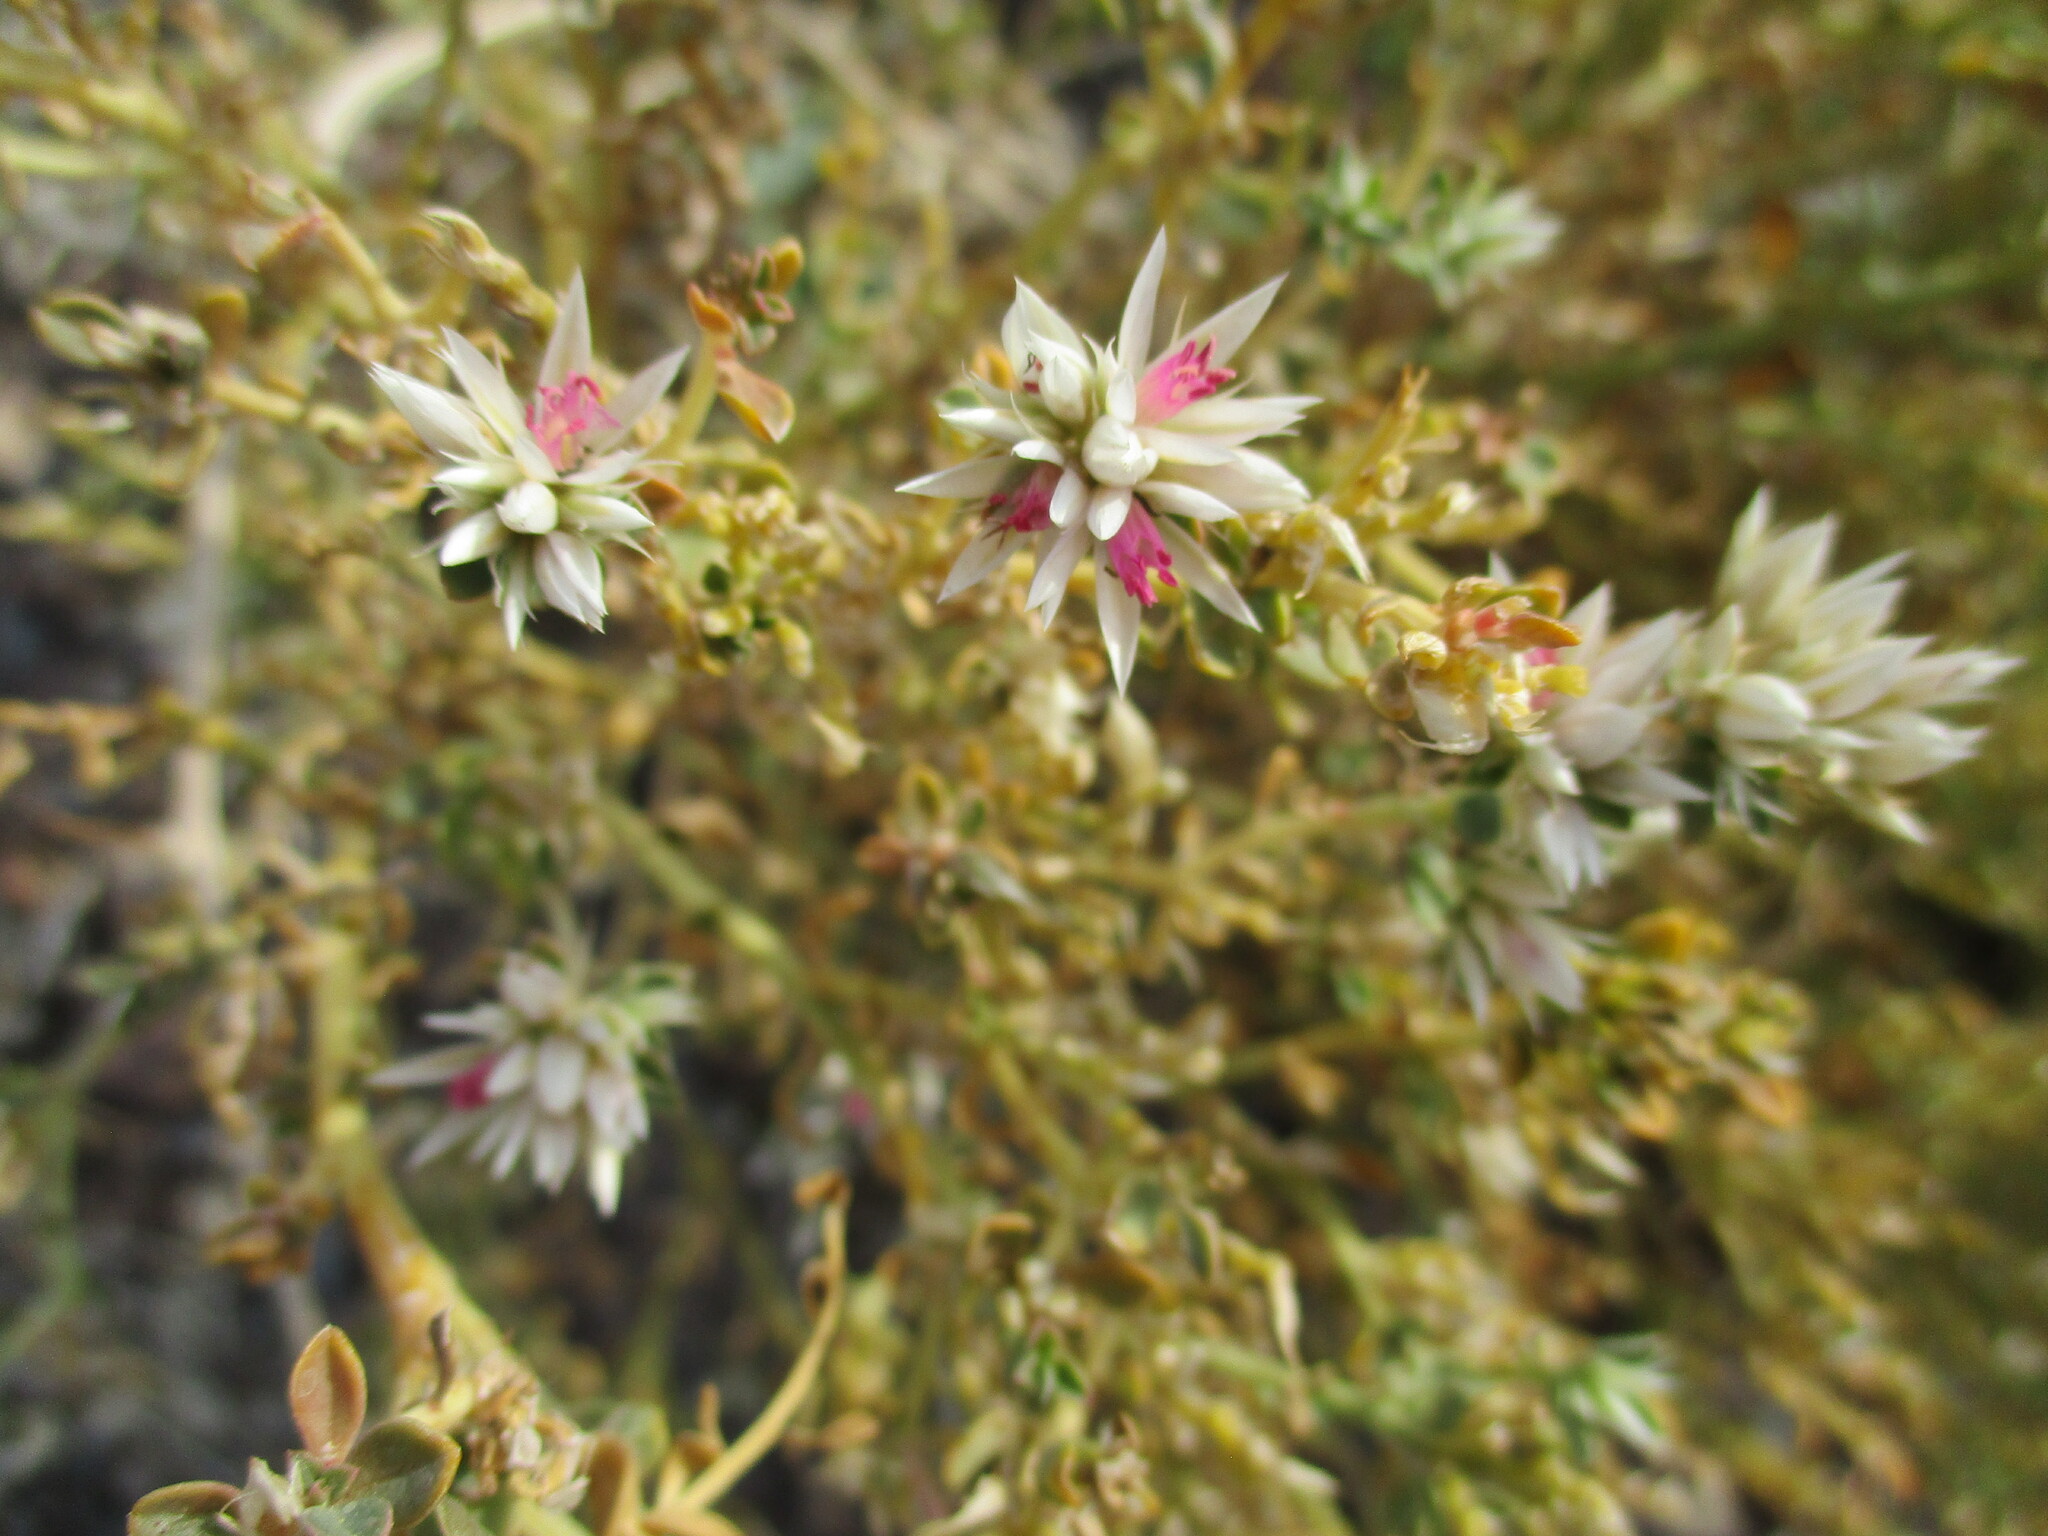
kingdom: Plantae
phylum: Tracheophyta
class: Magnoliopsida
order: Caryophyllales
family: Amaranthaceae
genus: Hermbstaedtia
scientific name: Hermbstaedtia spathulifolia
